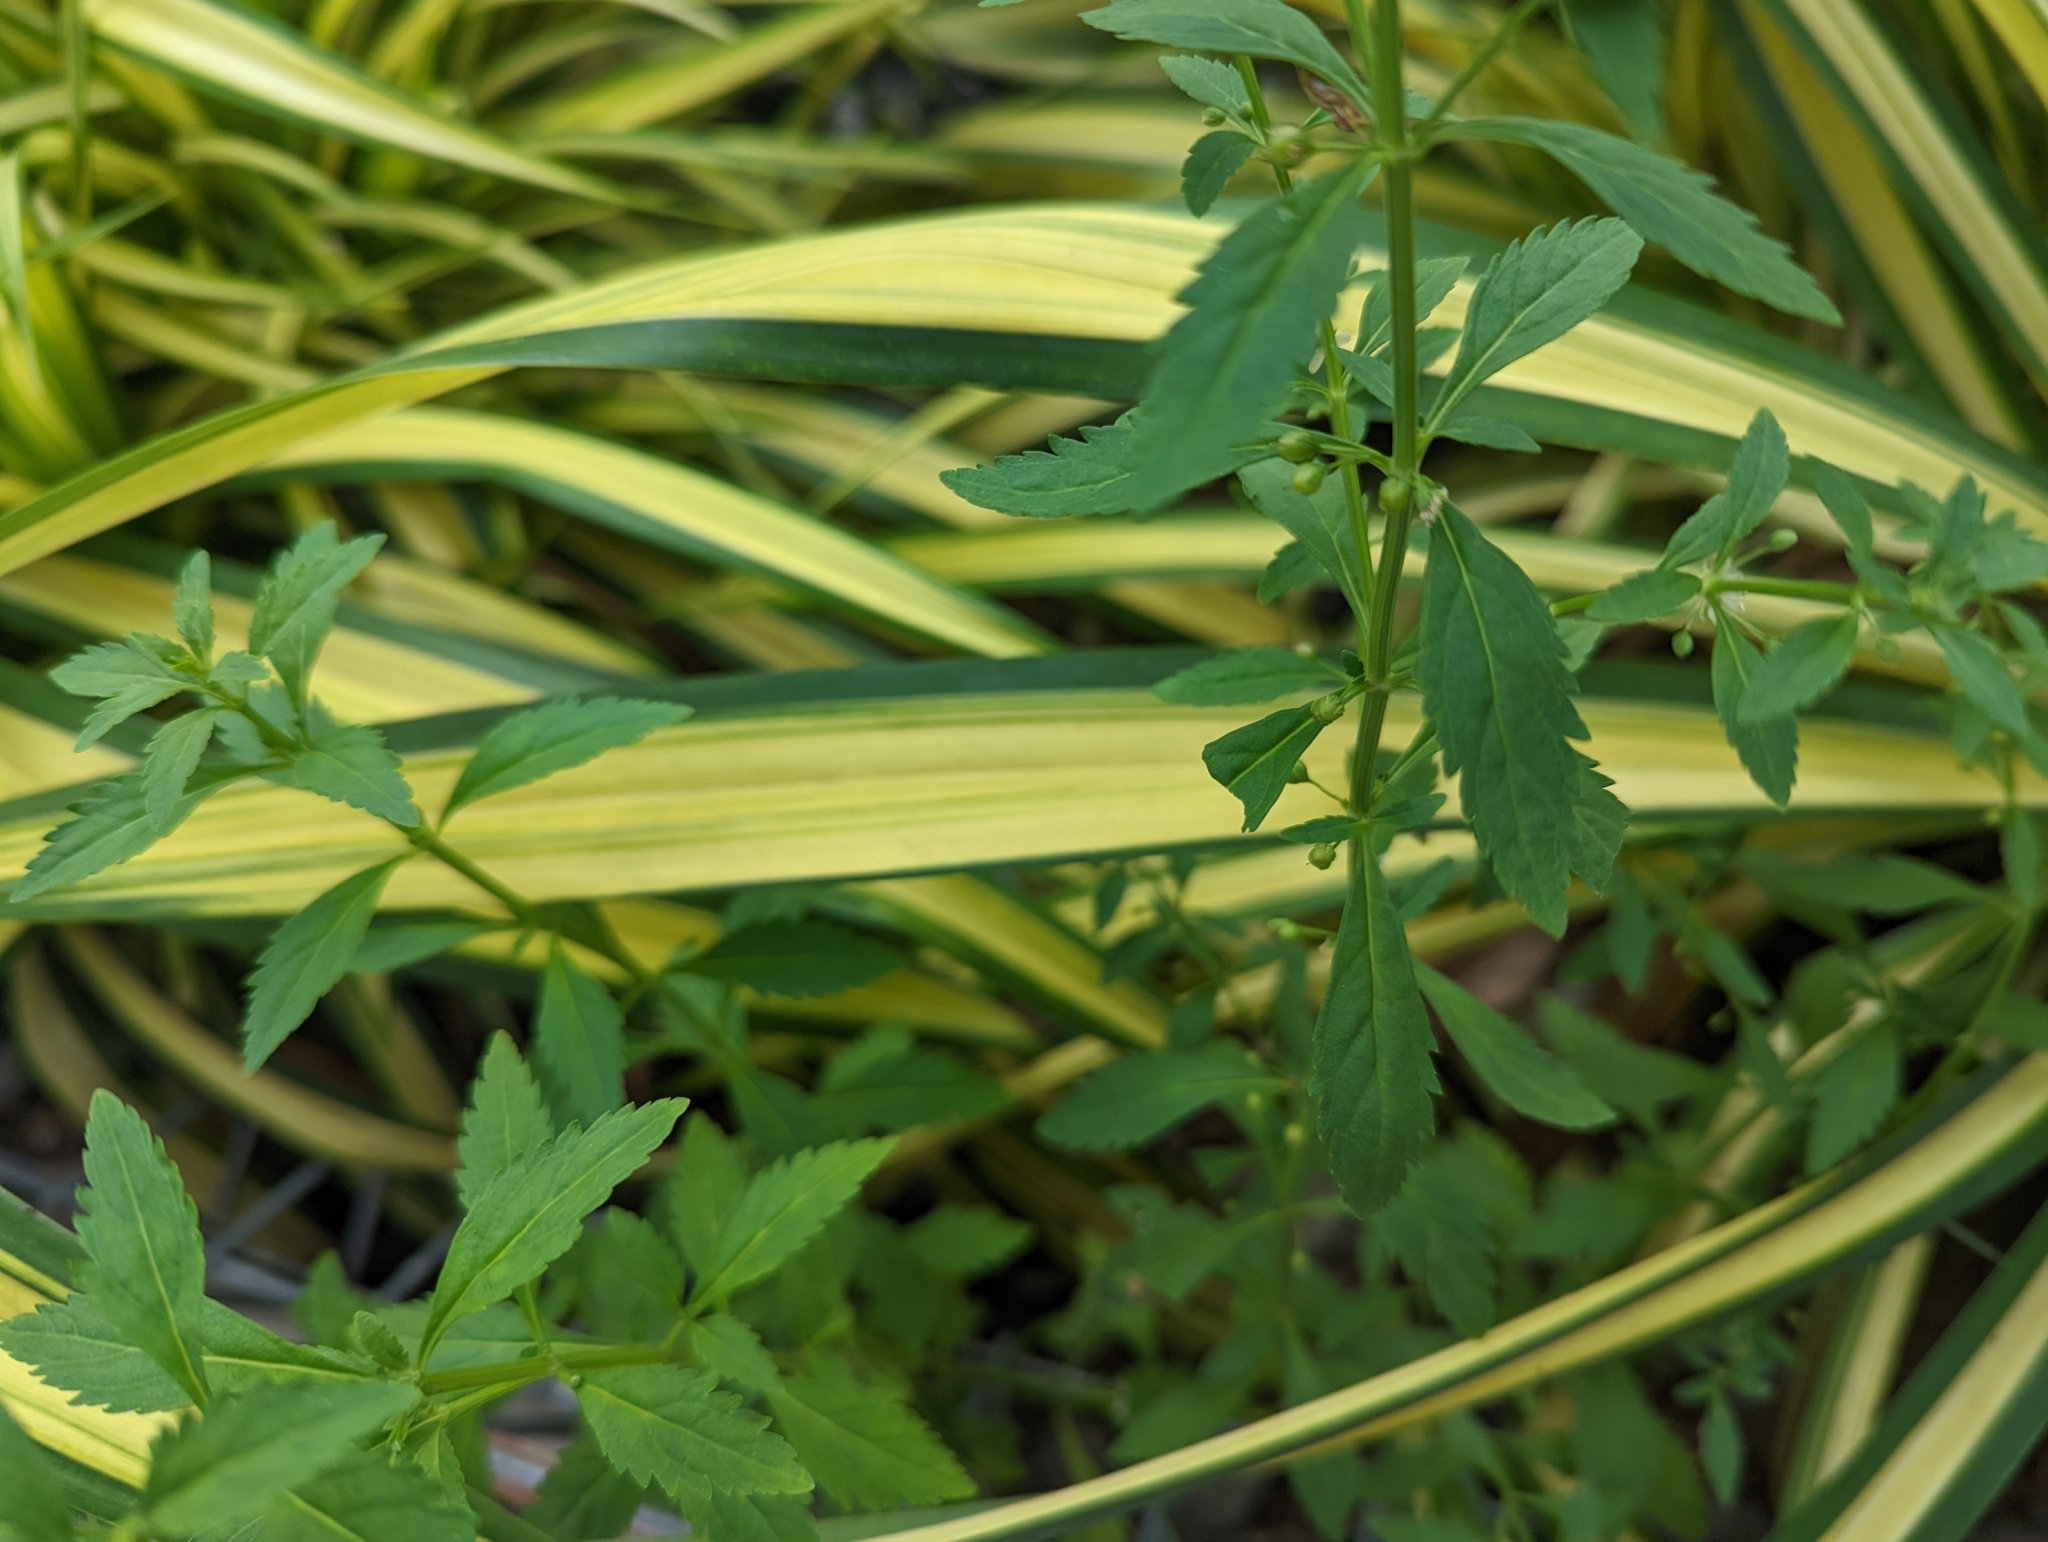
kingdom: Plantae
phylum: Tracheophyta
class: Magnoliopsida
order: Lamiales
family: Plantaginaceae
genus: Scoparia
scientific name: Scoparia dulcis
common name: Scoparia-weed
